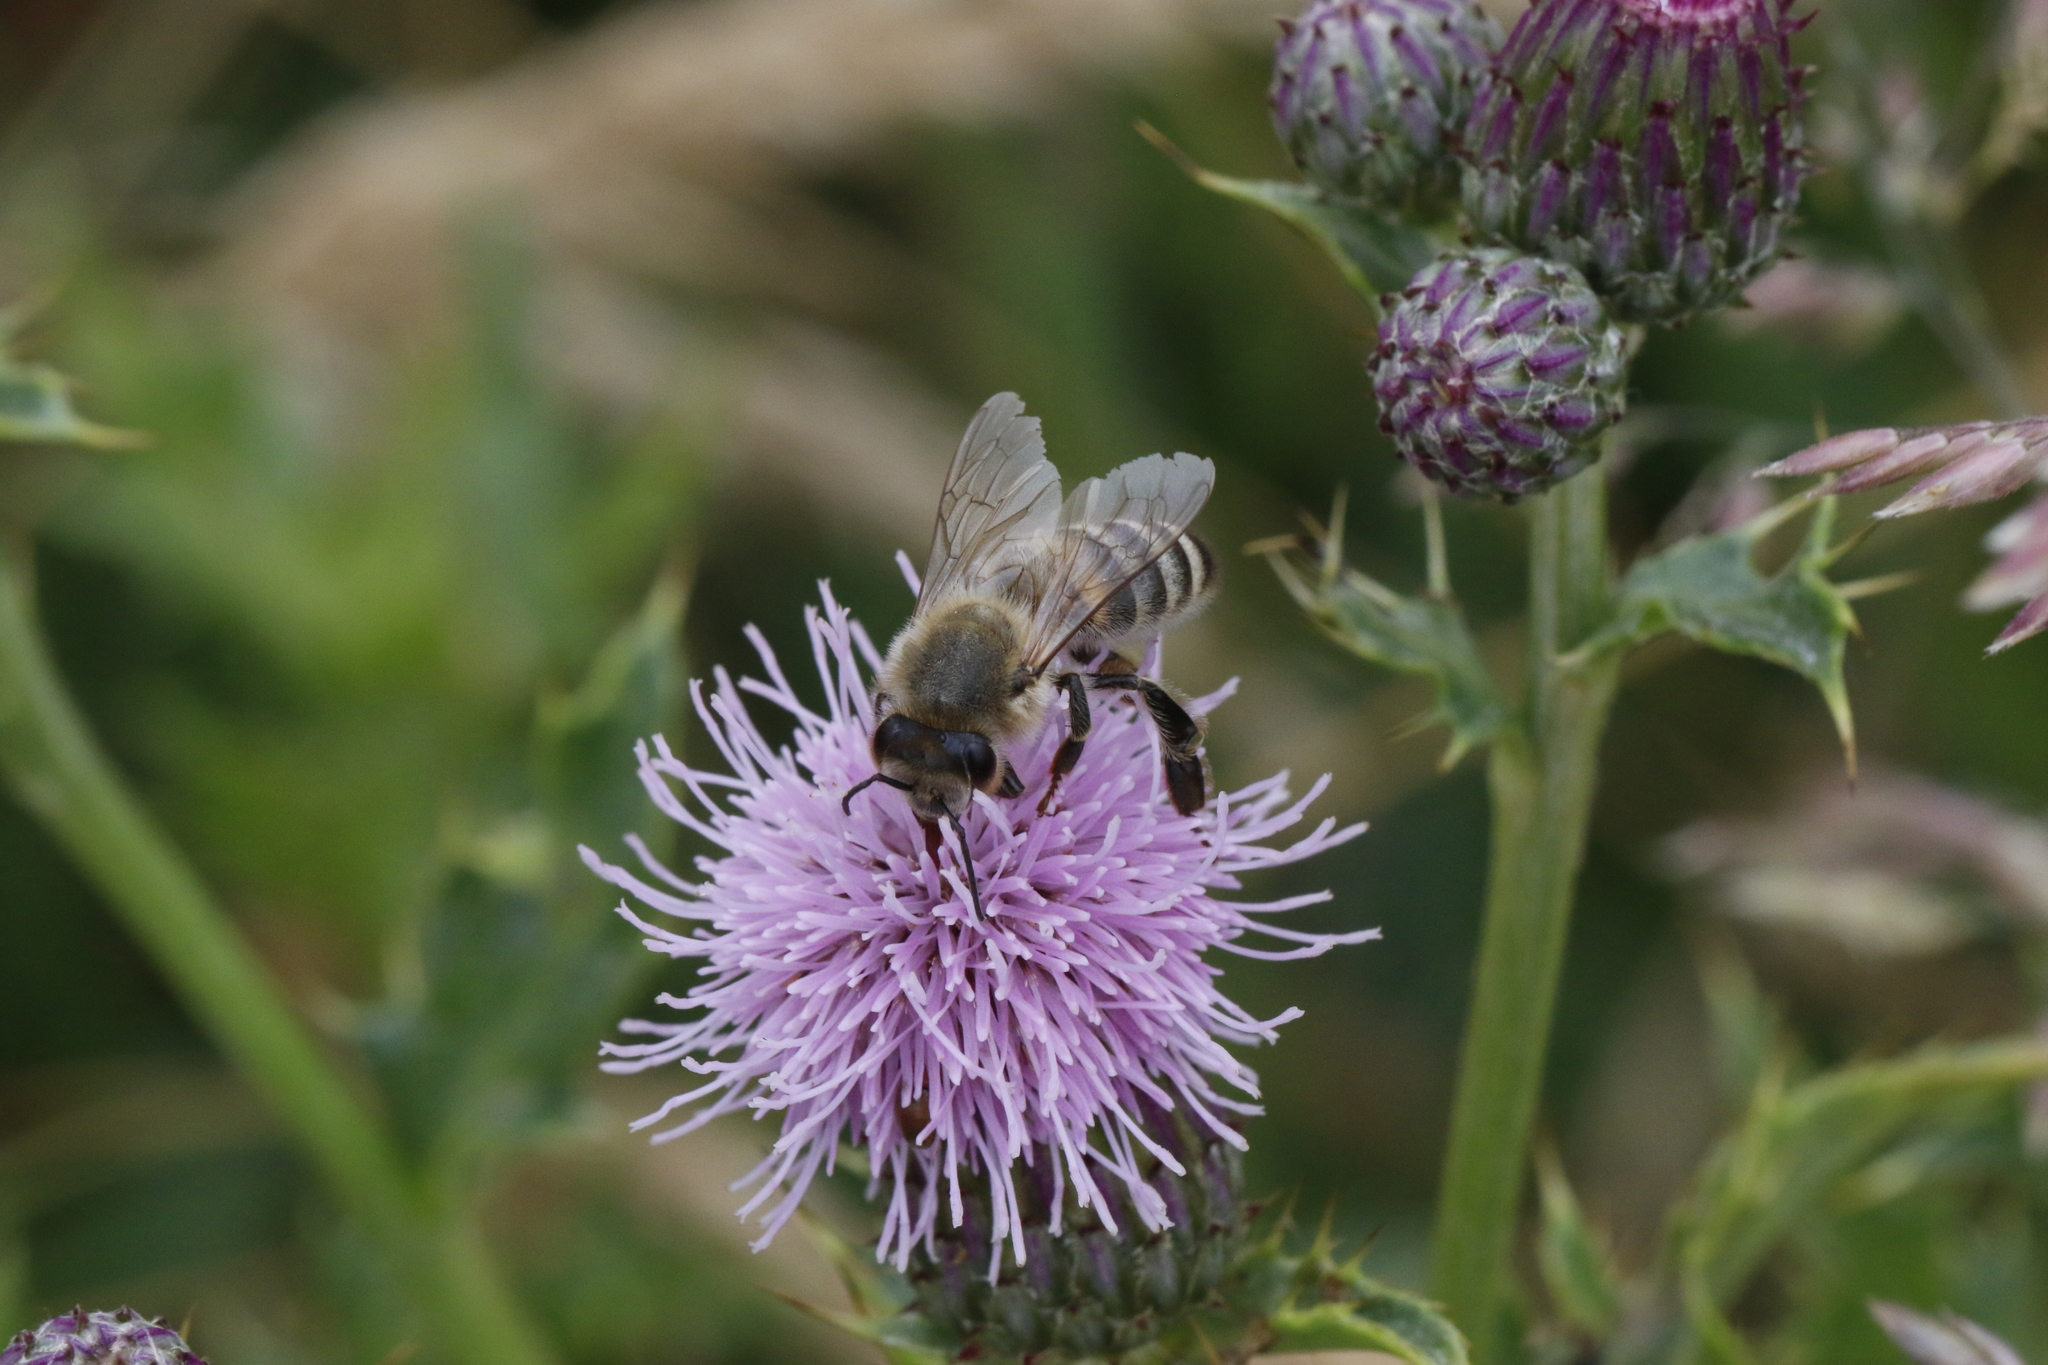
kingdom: Animalia
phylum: Arthropoda
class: Insecta
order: Hymenoptera
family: Apidae
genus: Apis
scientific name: Apis mellifera
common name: Honey bee
